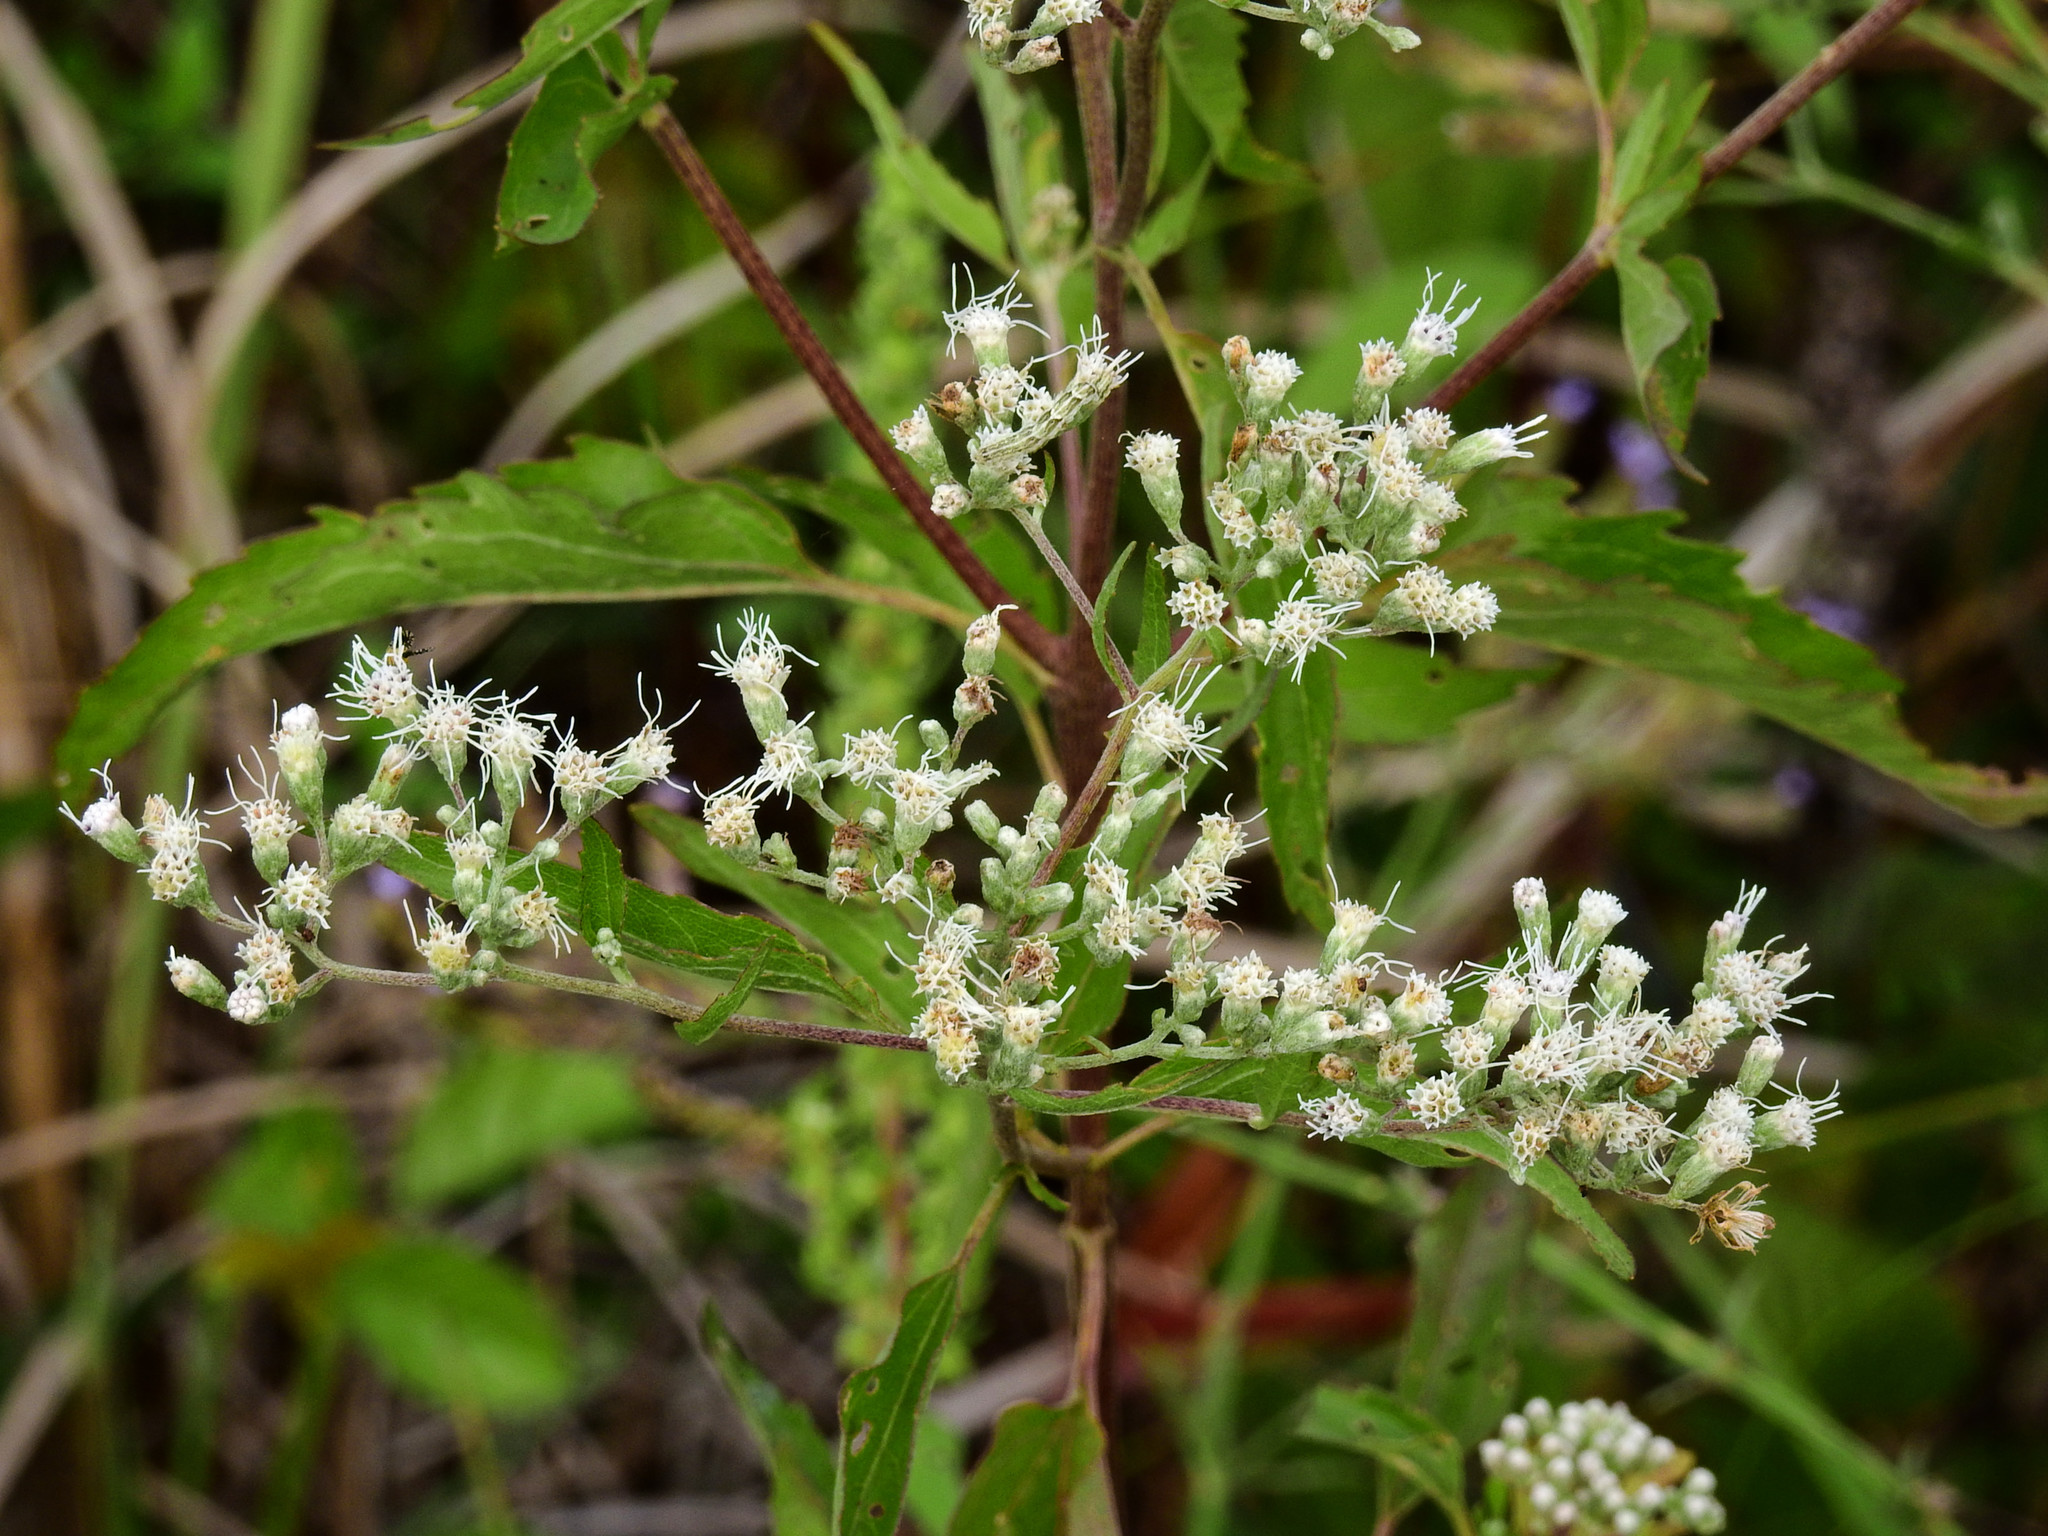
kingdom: Plantae
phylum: Tracheophyta
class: Magnoliopsida
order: Asterales
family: Asteraceae
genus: Eupatorium
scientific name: Eupatorium serotinum
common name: Late boneset
